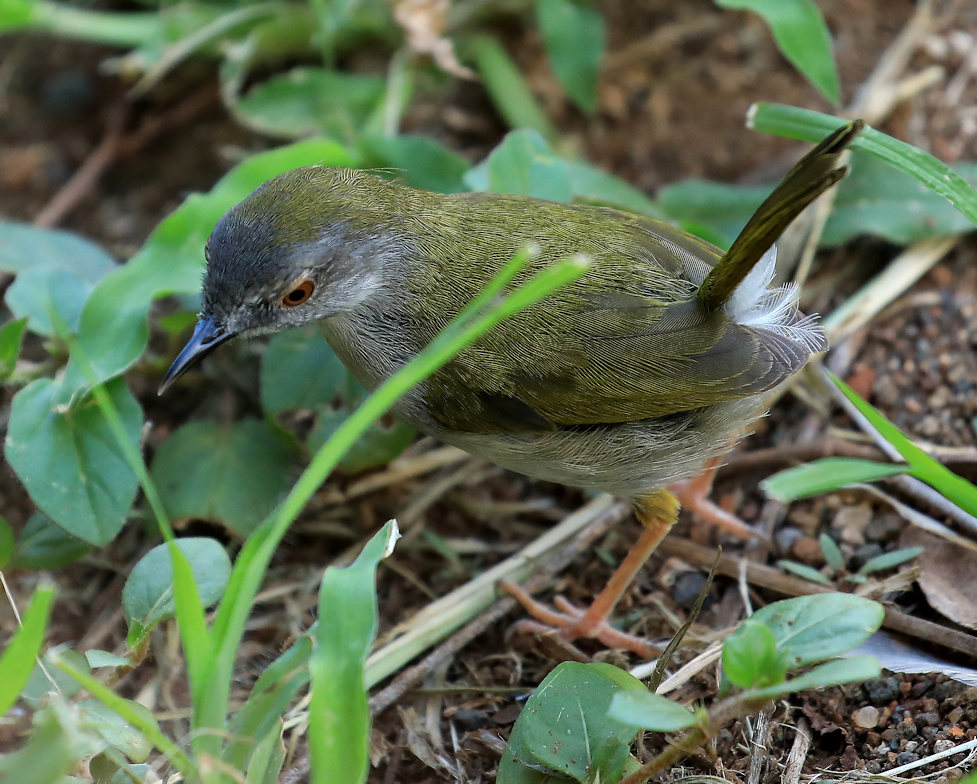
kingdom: Animalia
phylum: Chordata
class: Aves
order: Passeriformes
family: Cisticolidae
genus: Camaroptera
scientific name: Camaroptera brachyura
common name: Green-backed camaroptera
